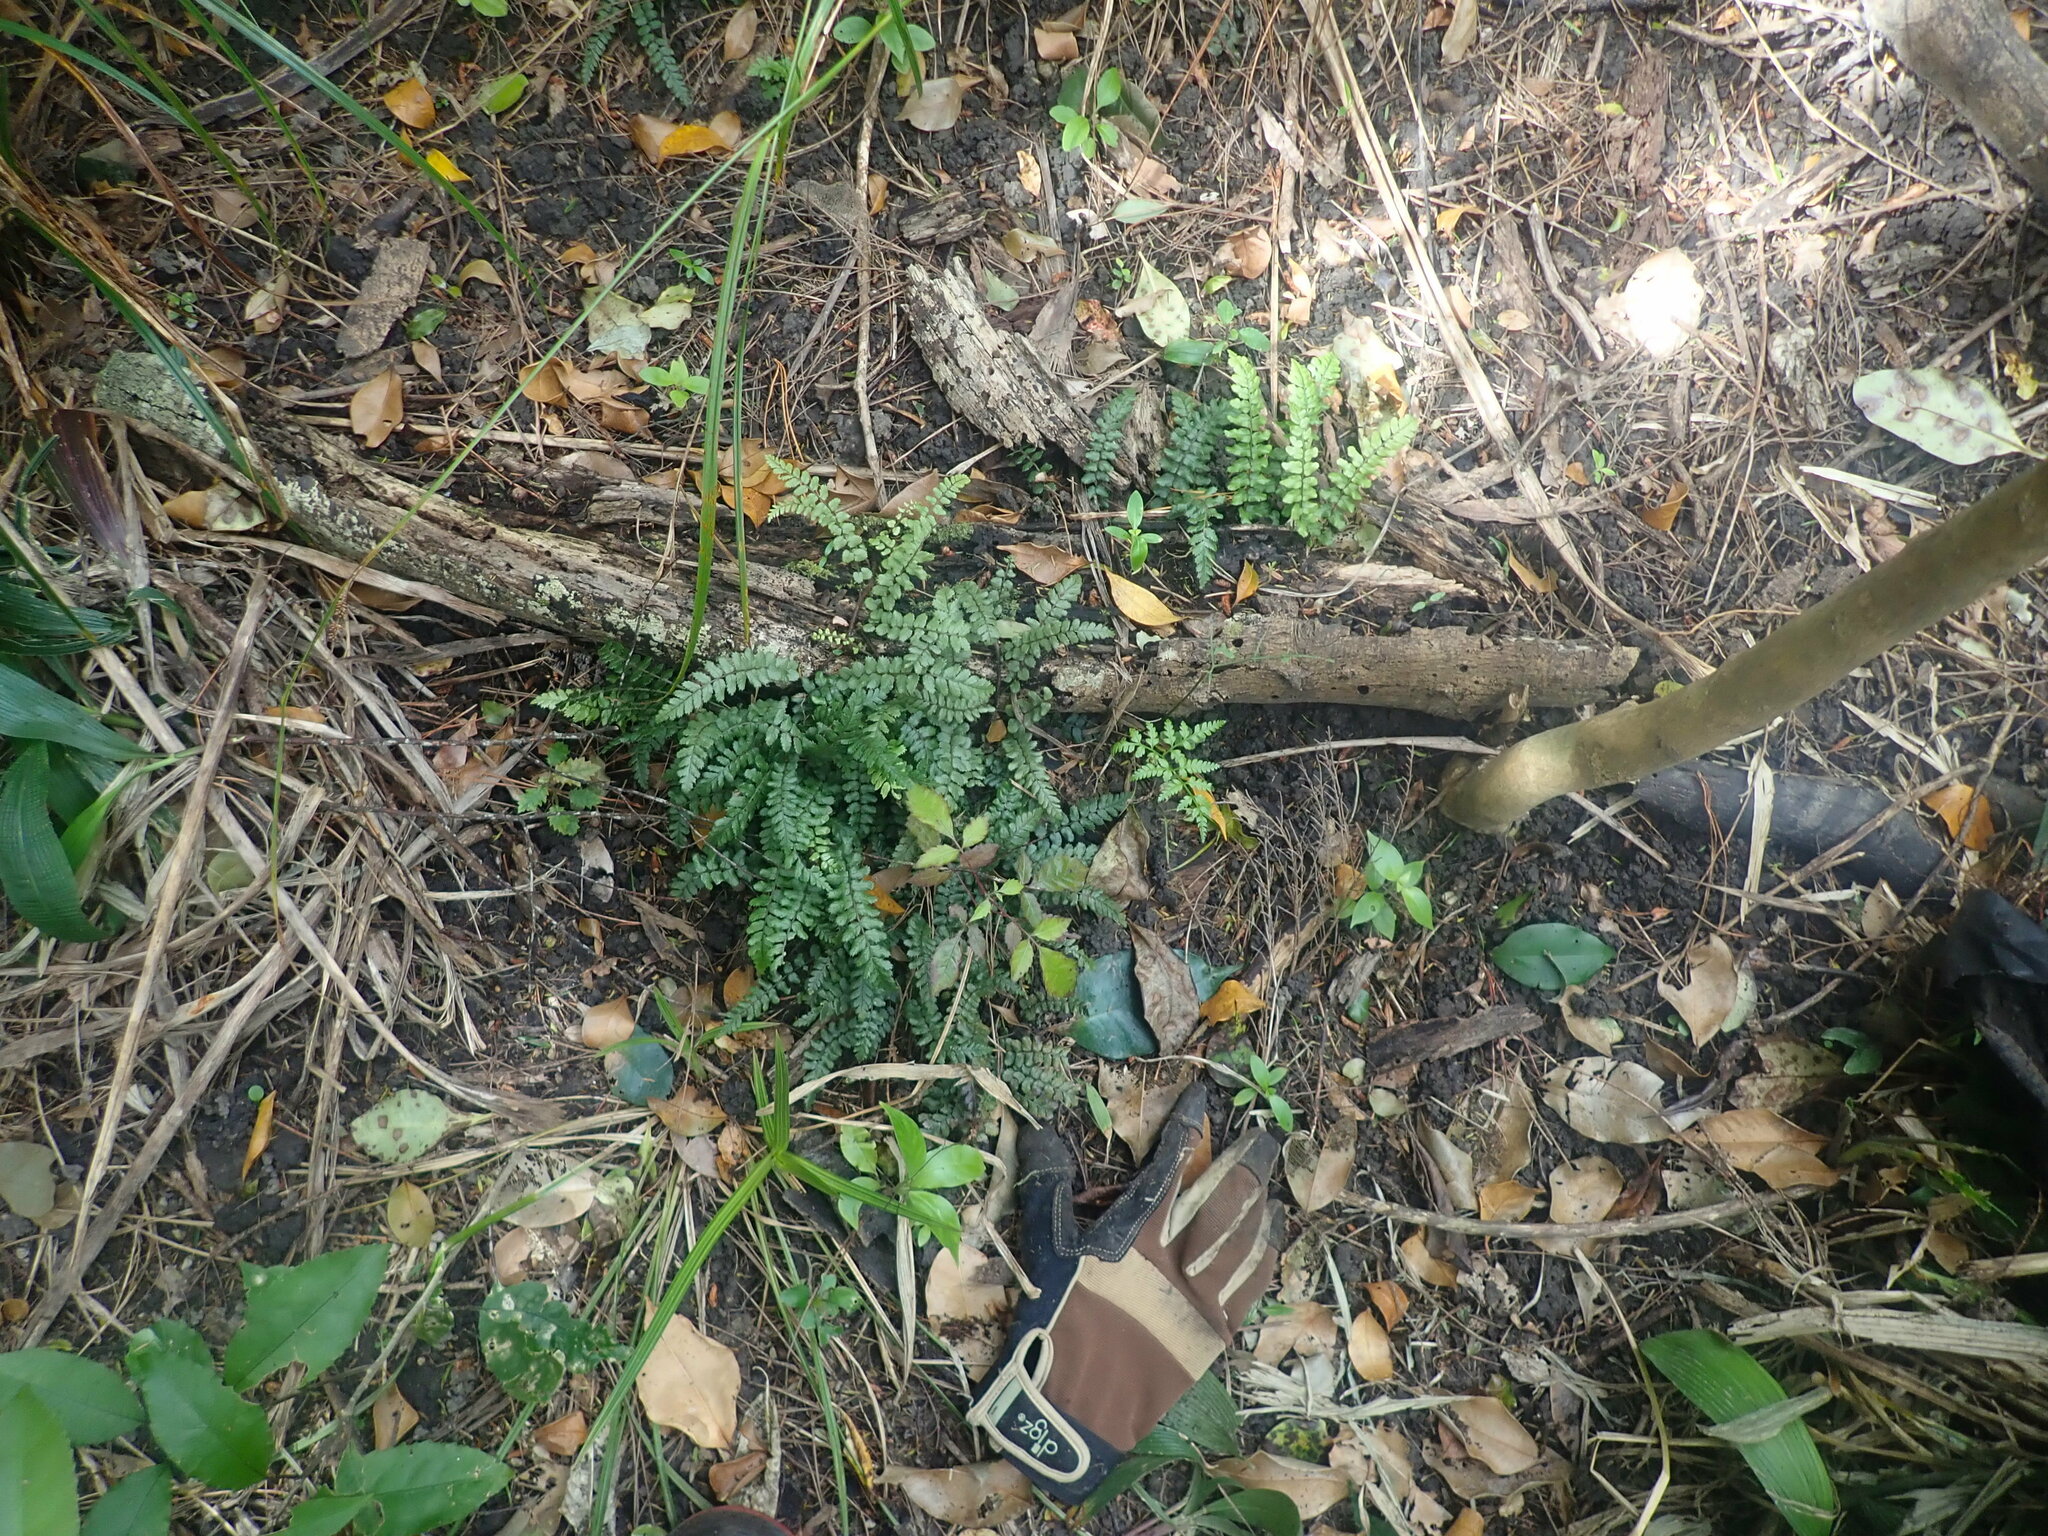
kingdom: Plantae
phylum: Tracheophyta
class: Polypodiopsida
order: Polypodiales
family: Blechnaceae
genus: Icarus
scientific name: Icarus filiformis
